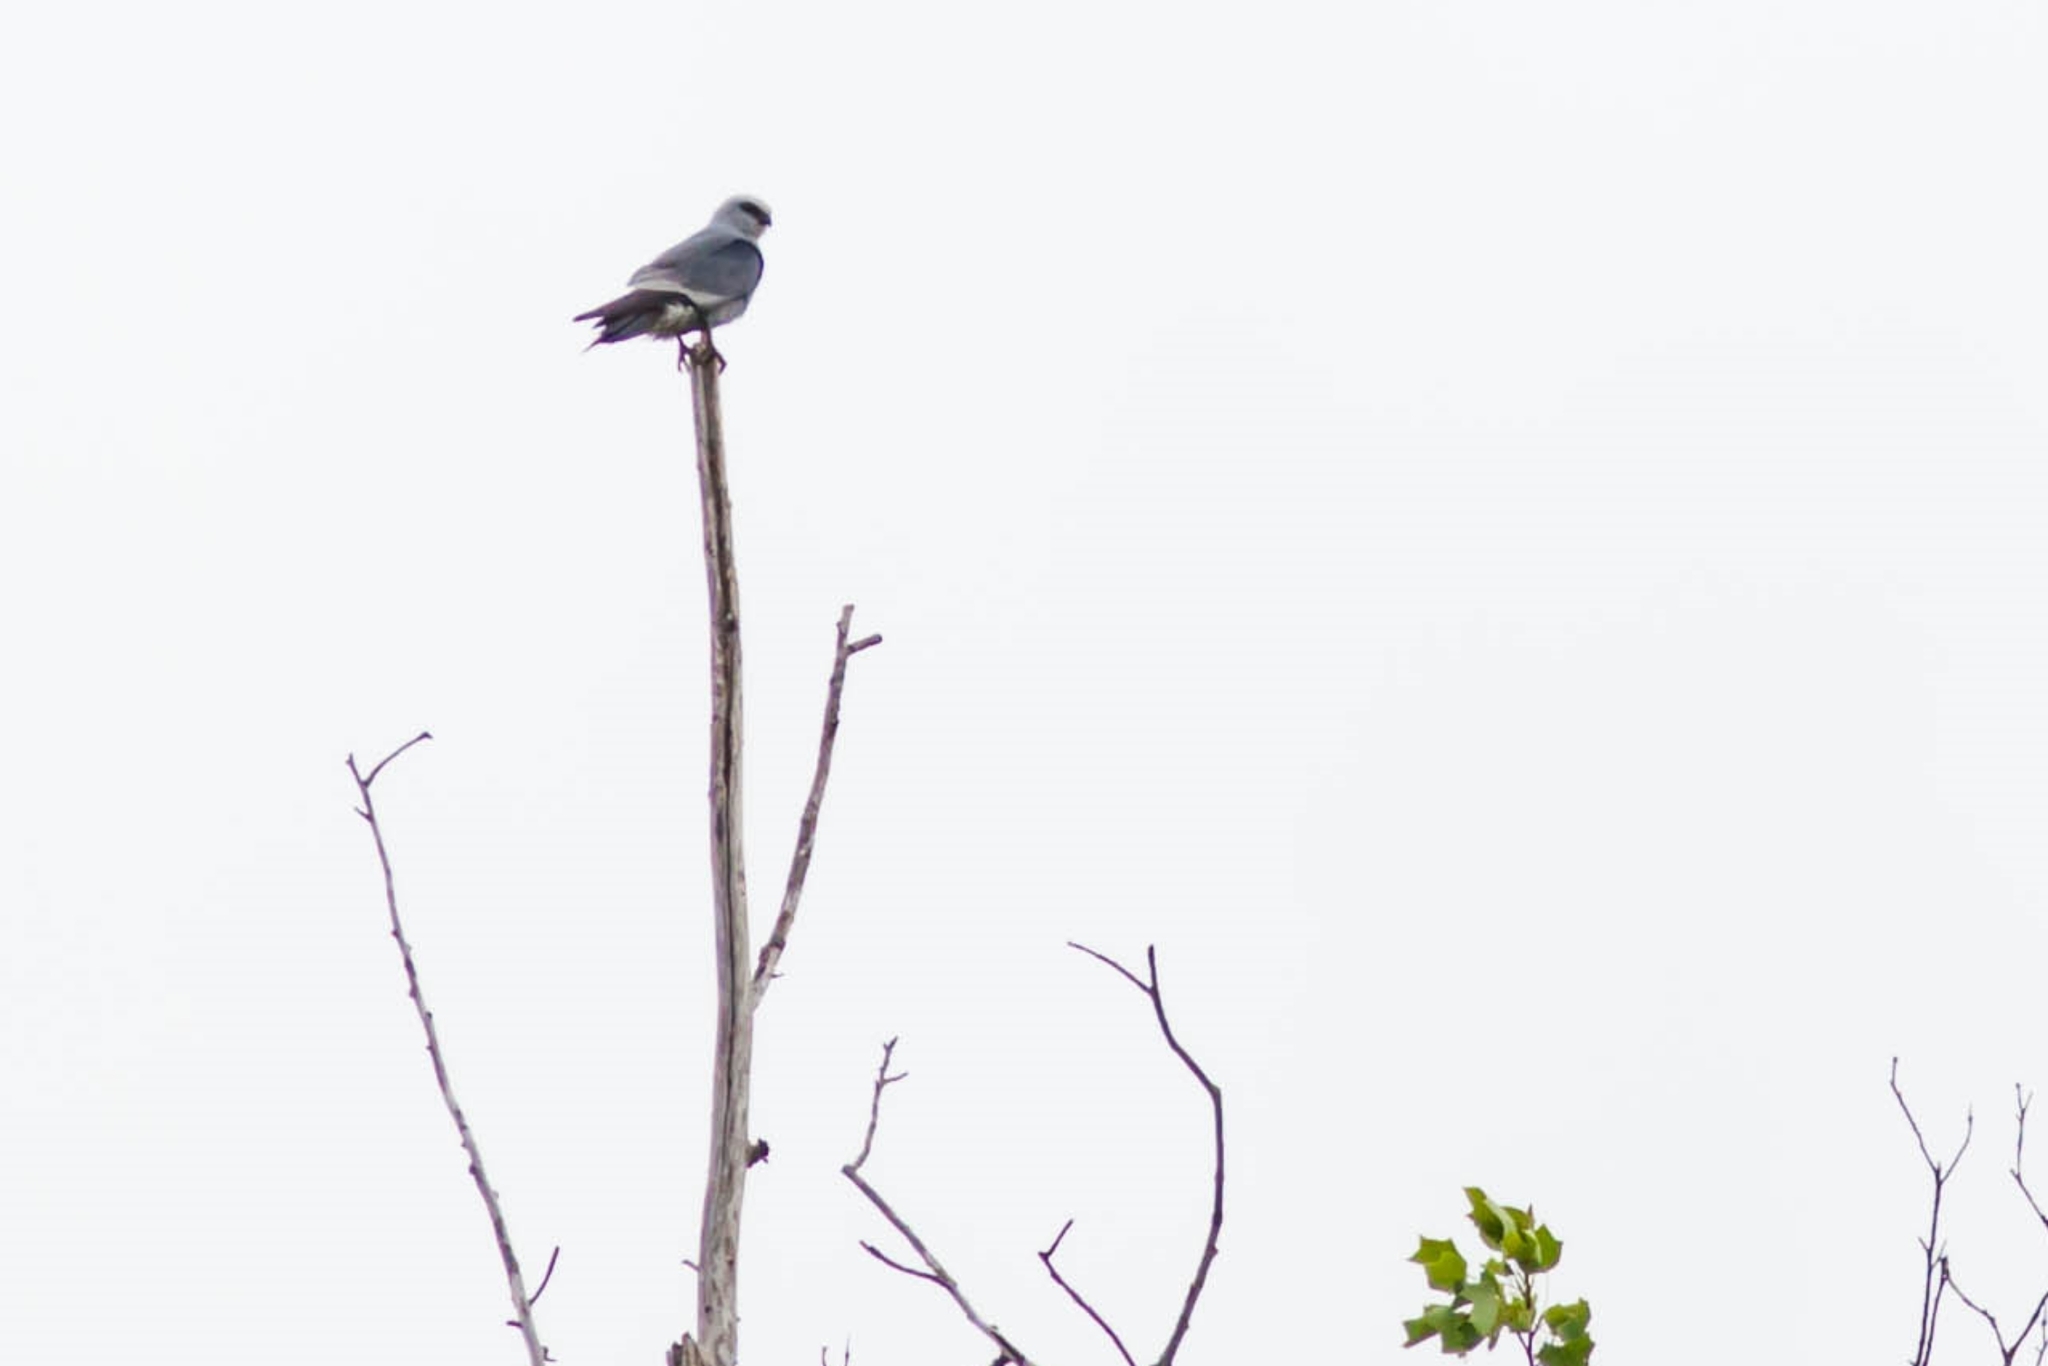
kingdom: Animalia
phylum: Chordata
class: Aves
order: Accipitriformes
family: Accipitridae
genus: Ictinia
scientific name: Ictinia mississippiensis
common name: Mississippi kite
